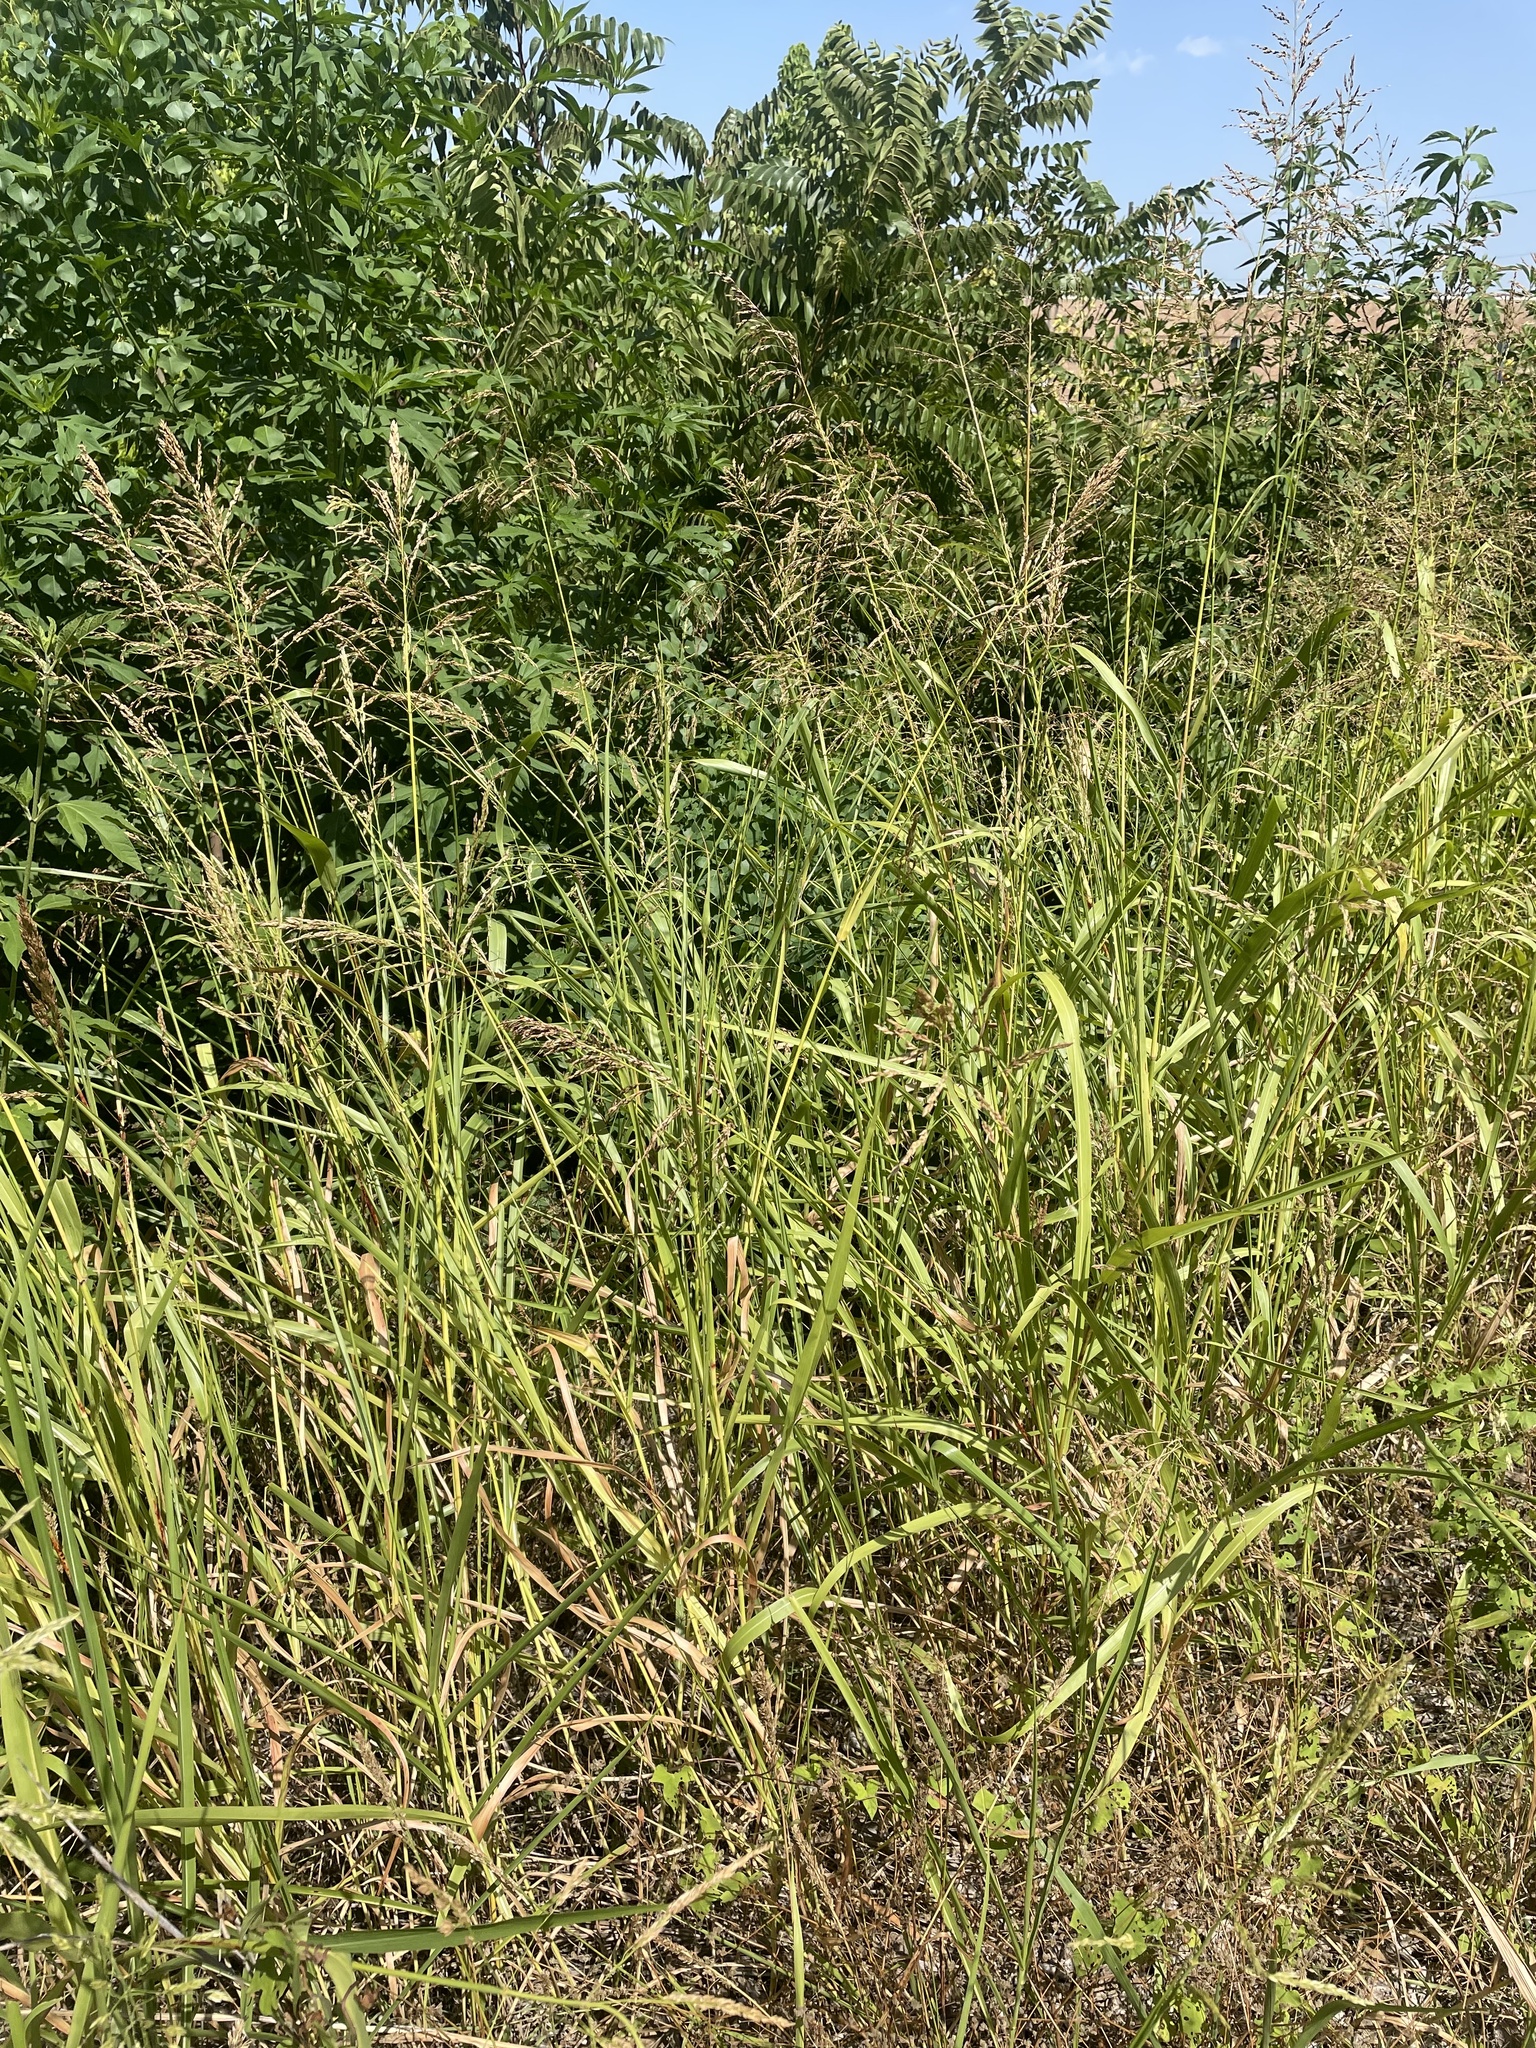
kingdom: Plantae
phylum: Tracheophyta
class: Liliopsida
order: Poales
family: Poaceae
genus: Sorghum
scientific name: Sorghum halepense
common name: Johnson-grass
